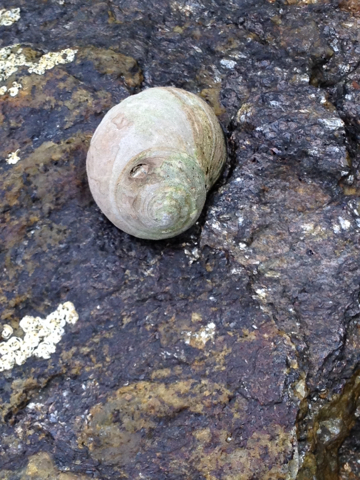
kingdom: Animalia
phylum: Mollusca
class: Gastropoda
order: Littorinimorpha
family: Littorinidae
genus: Littorina
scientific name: Littorina littorea
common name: Common periwinkle
